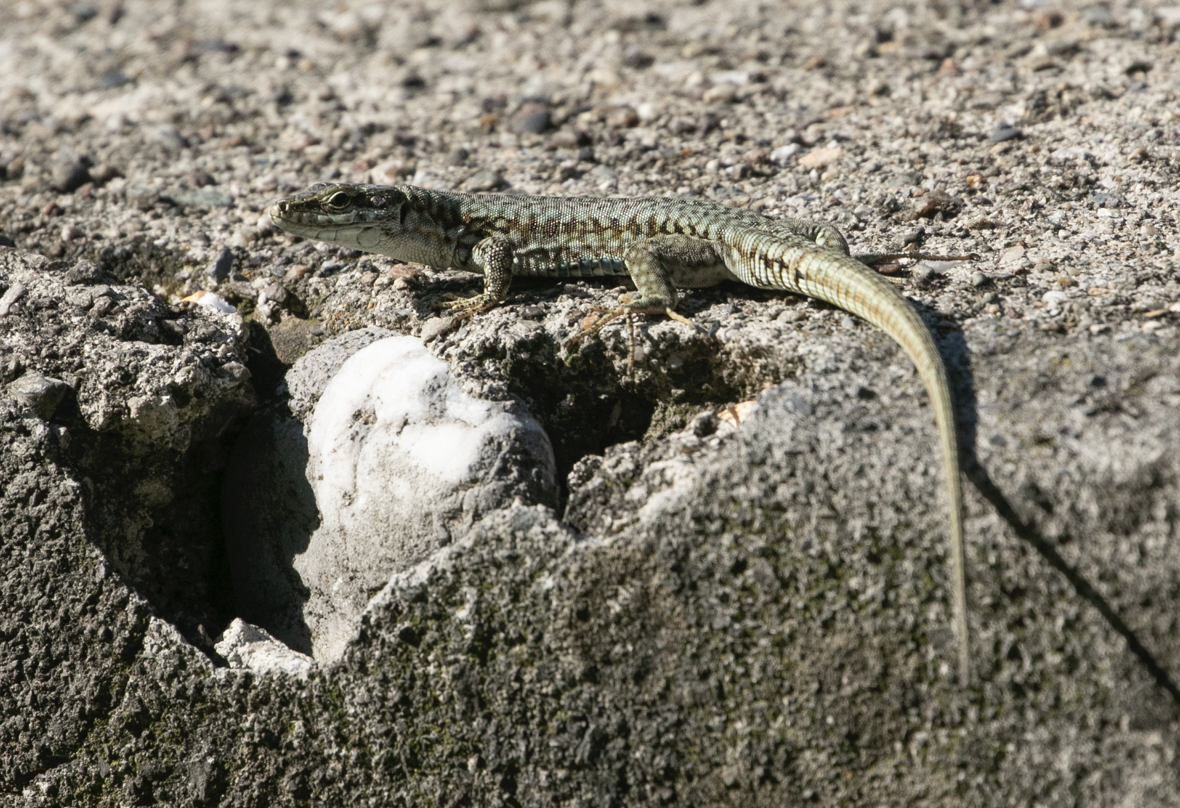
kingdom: Animalia
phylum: Chordata
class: Squamata
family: Lacertidae
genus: Podarcis
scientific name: Podarcis muralis
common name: Common wall lizard
